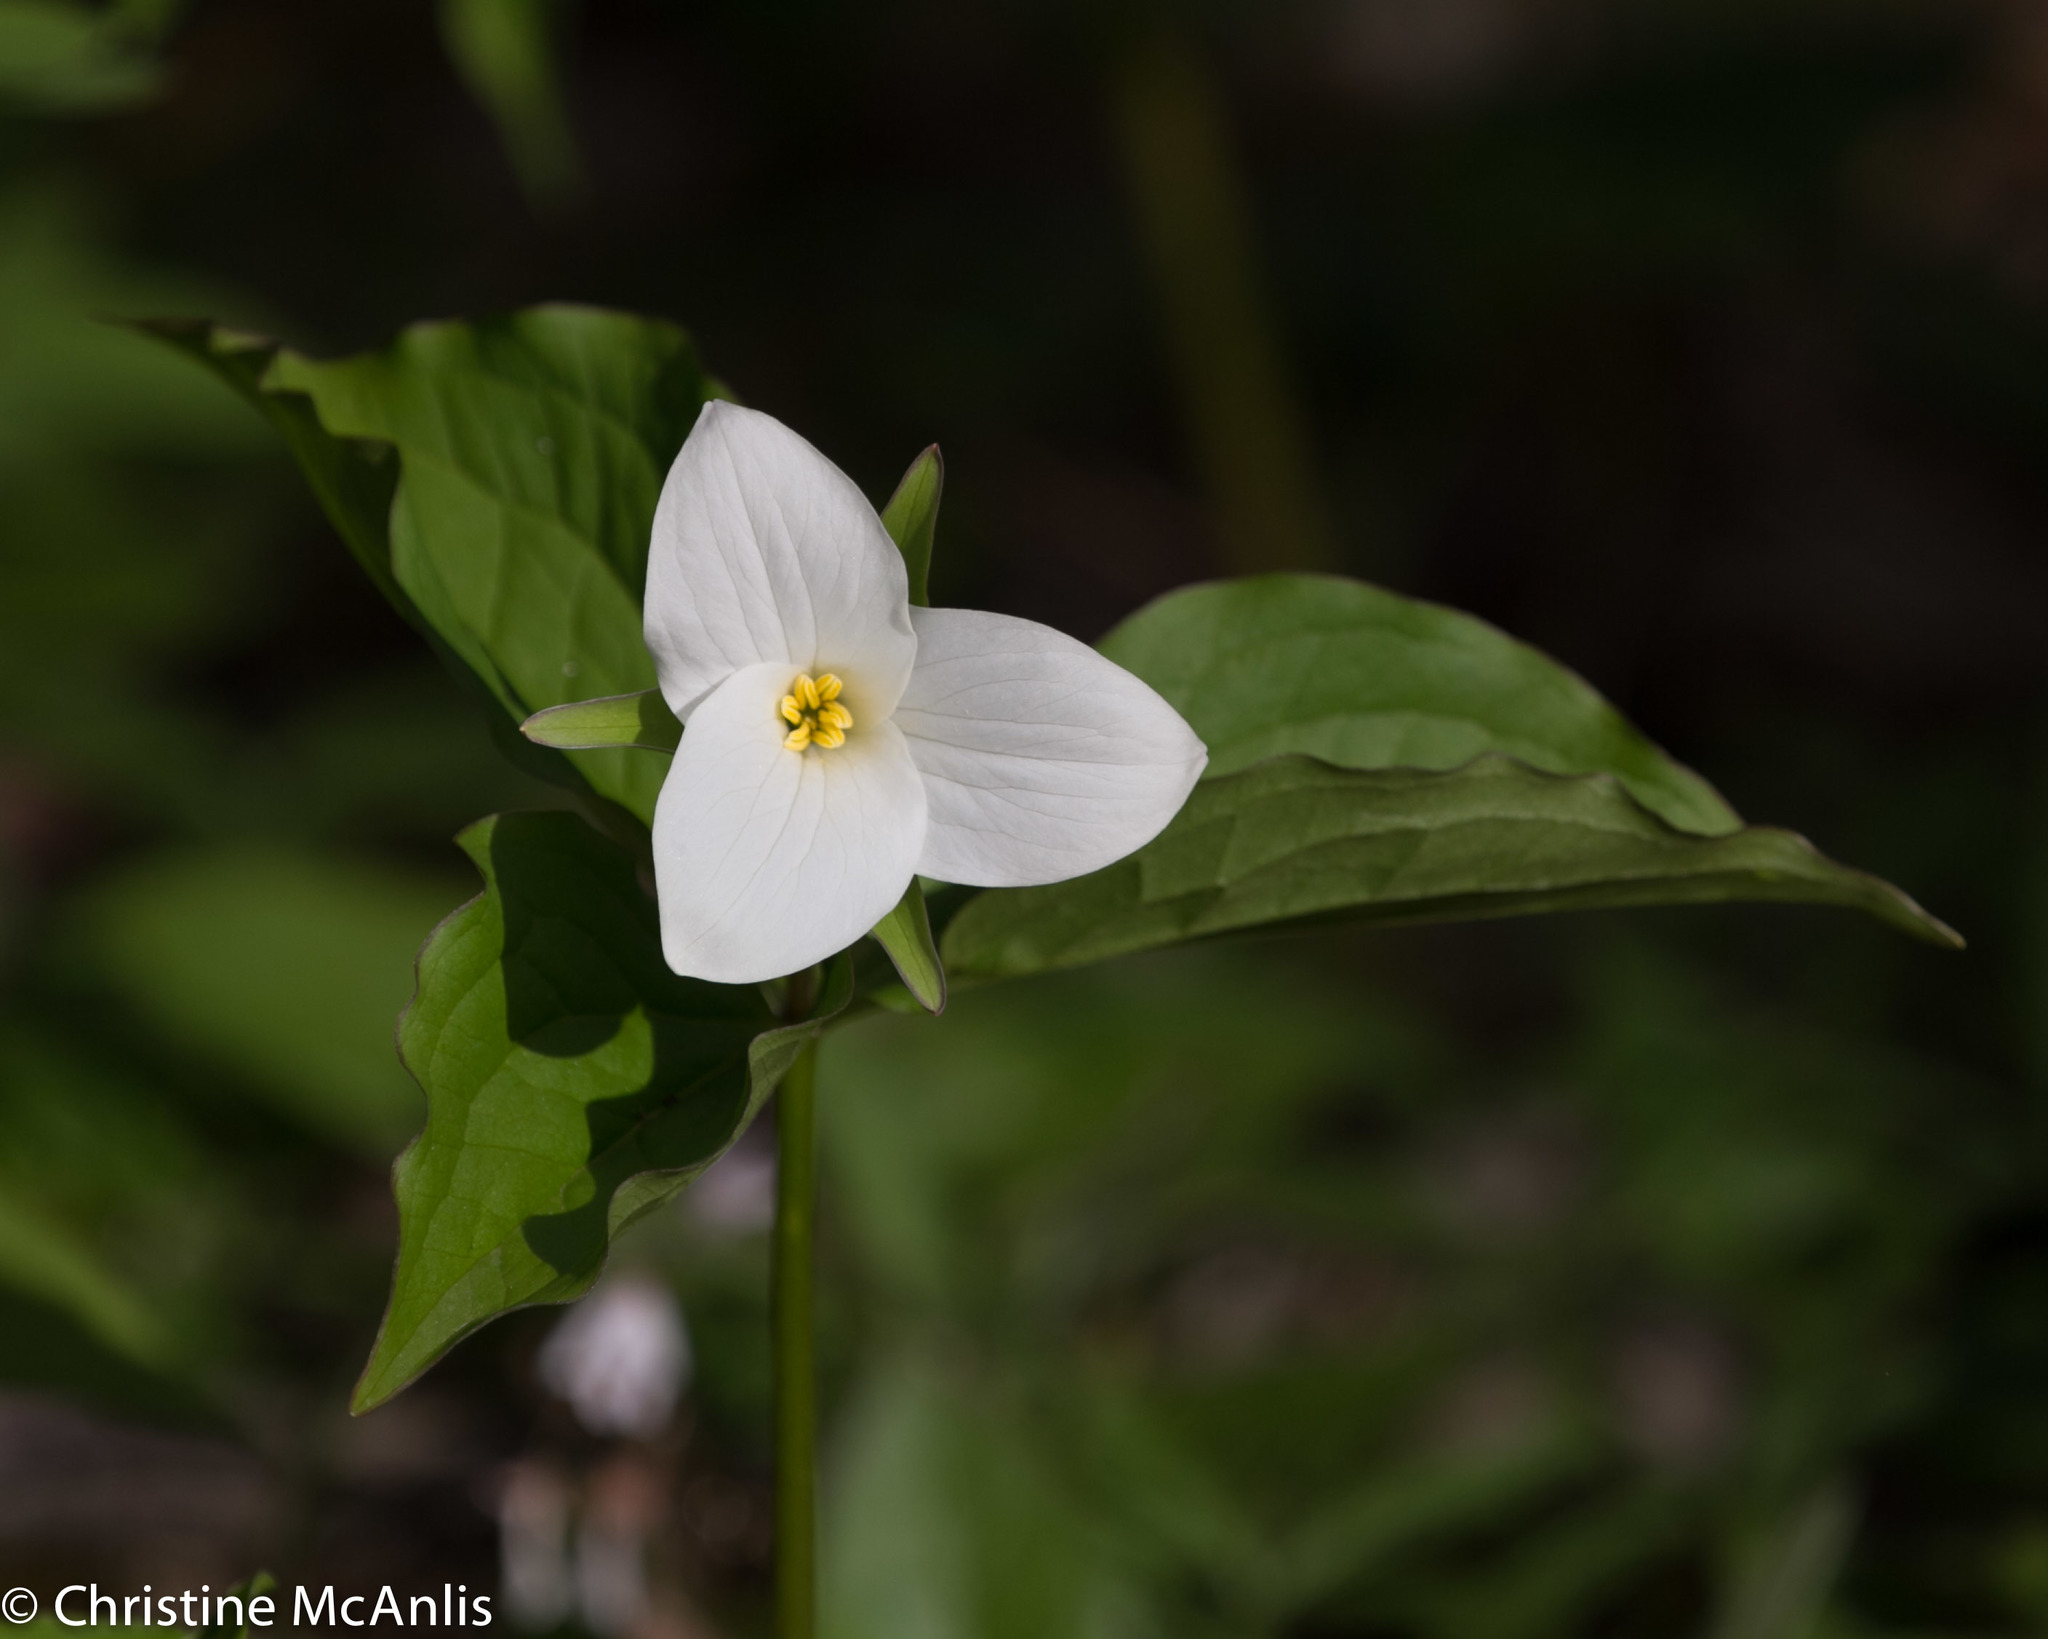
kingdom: Plantae
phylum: Tracheophyta
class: Liliopsida
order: Liliales
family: Melanthiaceae
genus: Trillium
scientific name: Trillium grandiflorum
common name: Great white trillium
